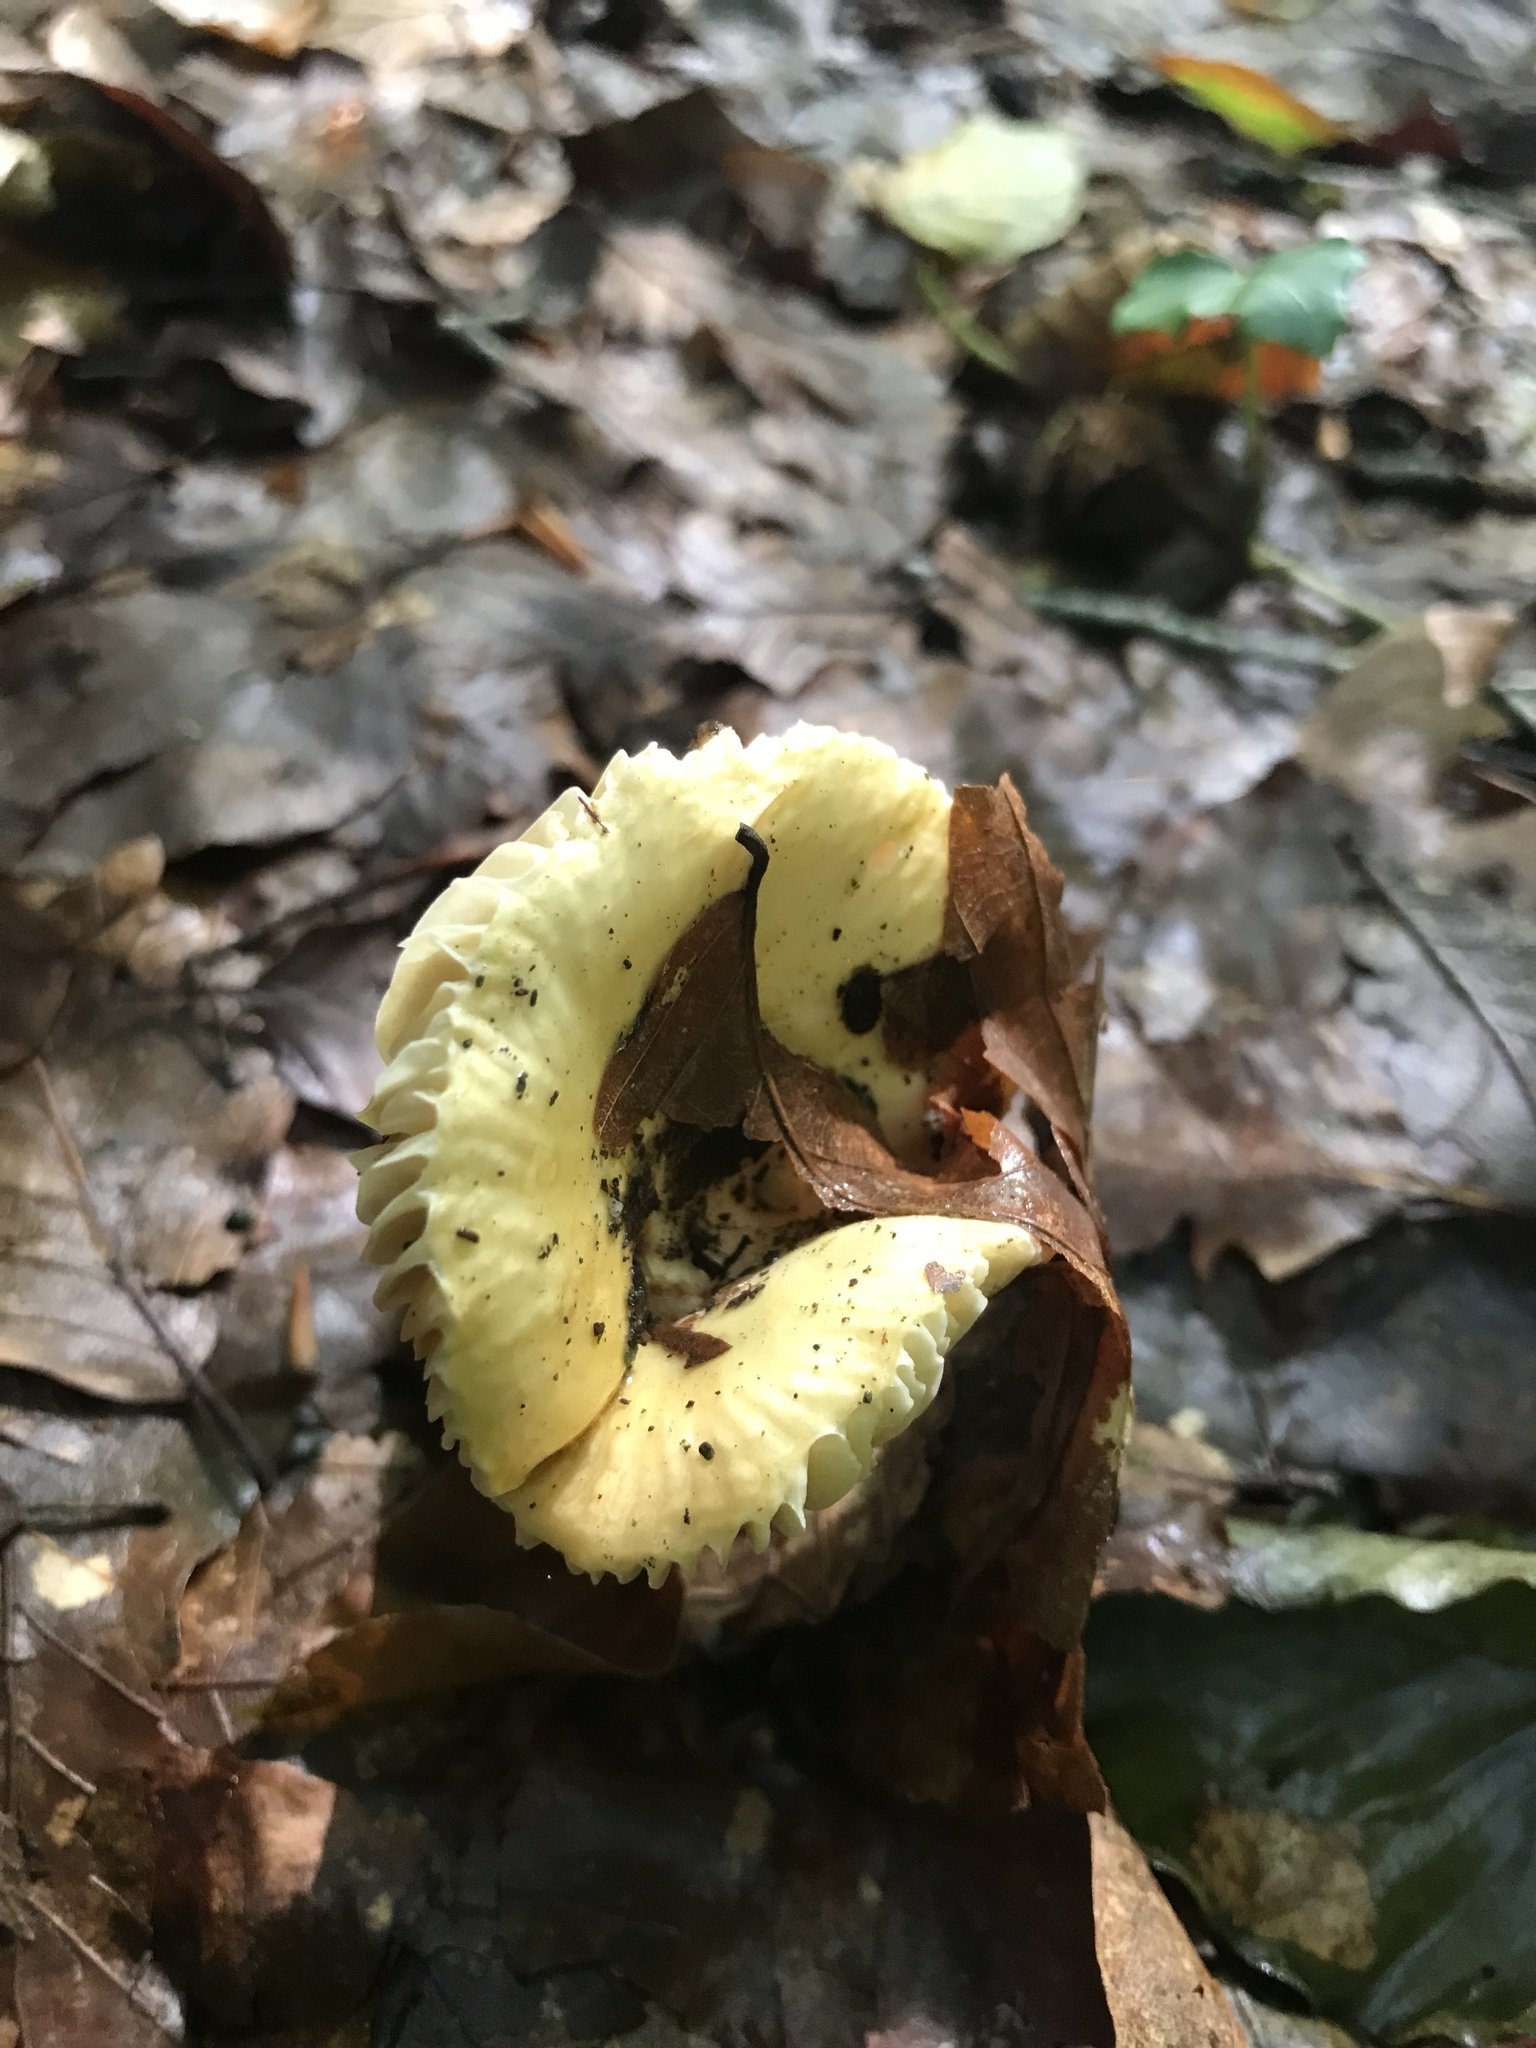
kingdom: Fungi
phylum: Basidiomycota
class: Agaricomycetes
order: Russulales
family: Russulaceae
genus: Russula
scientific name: Russula risigallina
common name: Golden brittlegill
